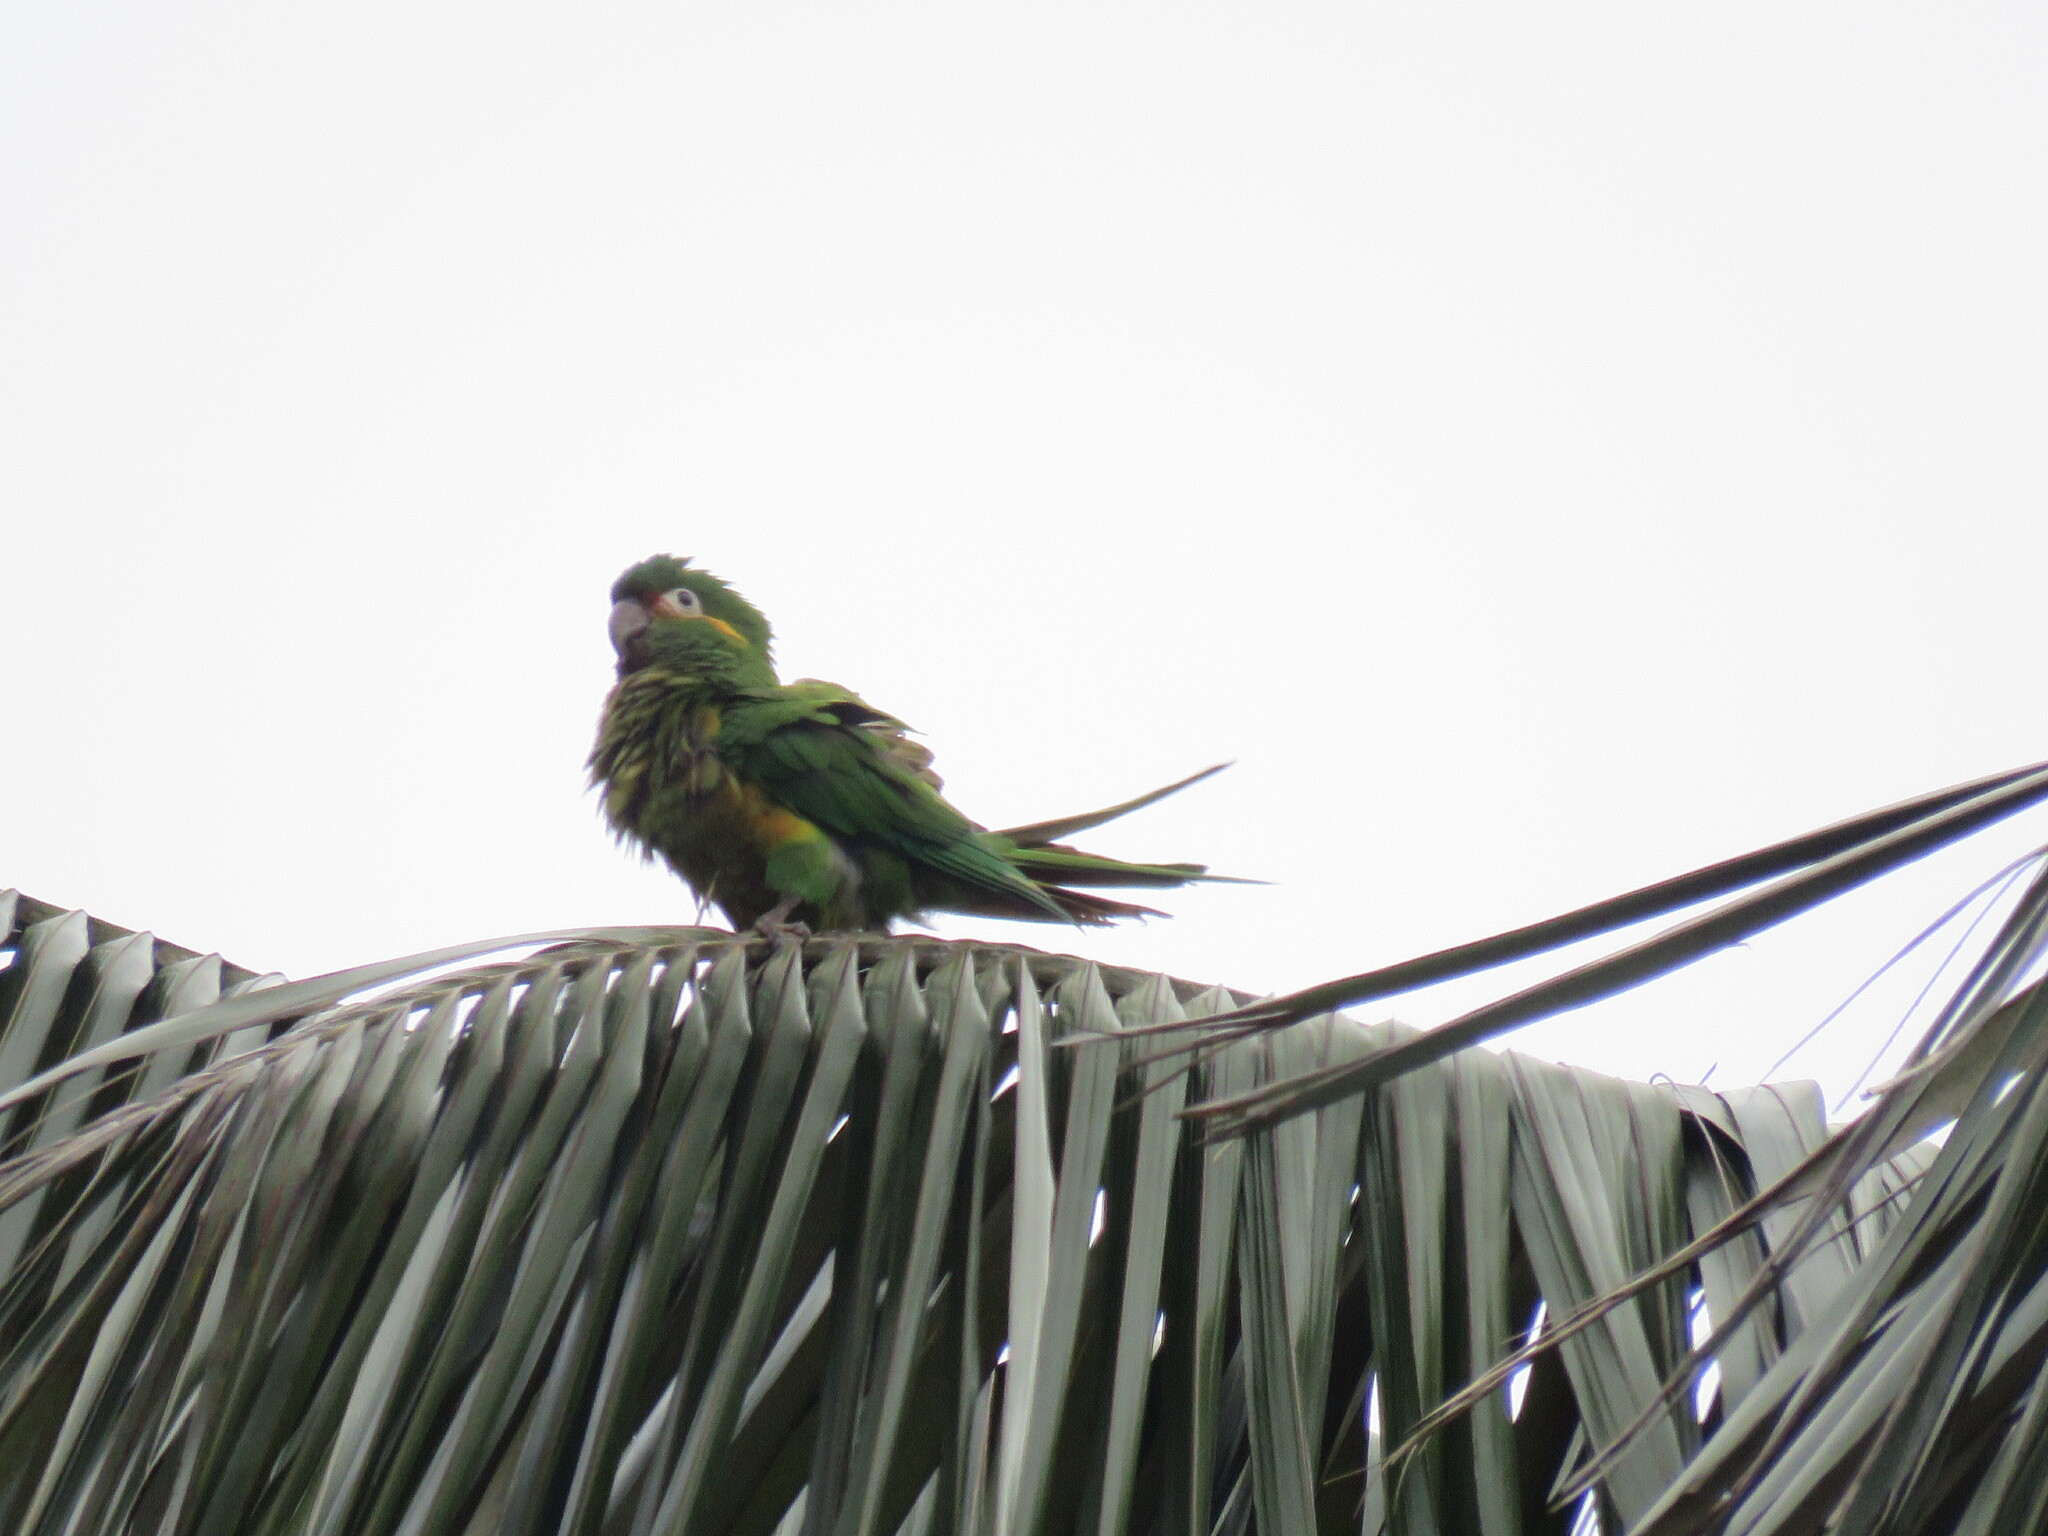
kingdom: Animalia
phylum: Chordata
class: Aves
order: Psittaciformes
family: Psittacidae
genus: Leptosittaca
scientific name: Leptosittaca branickii
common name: Golden-plumed parakeet
